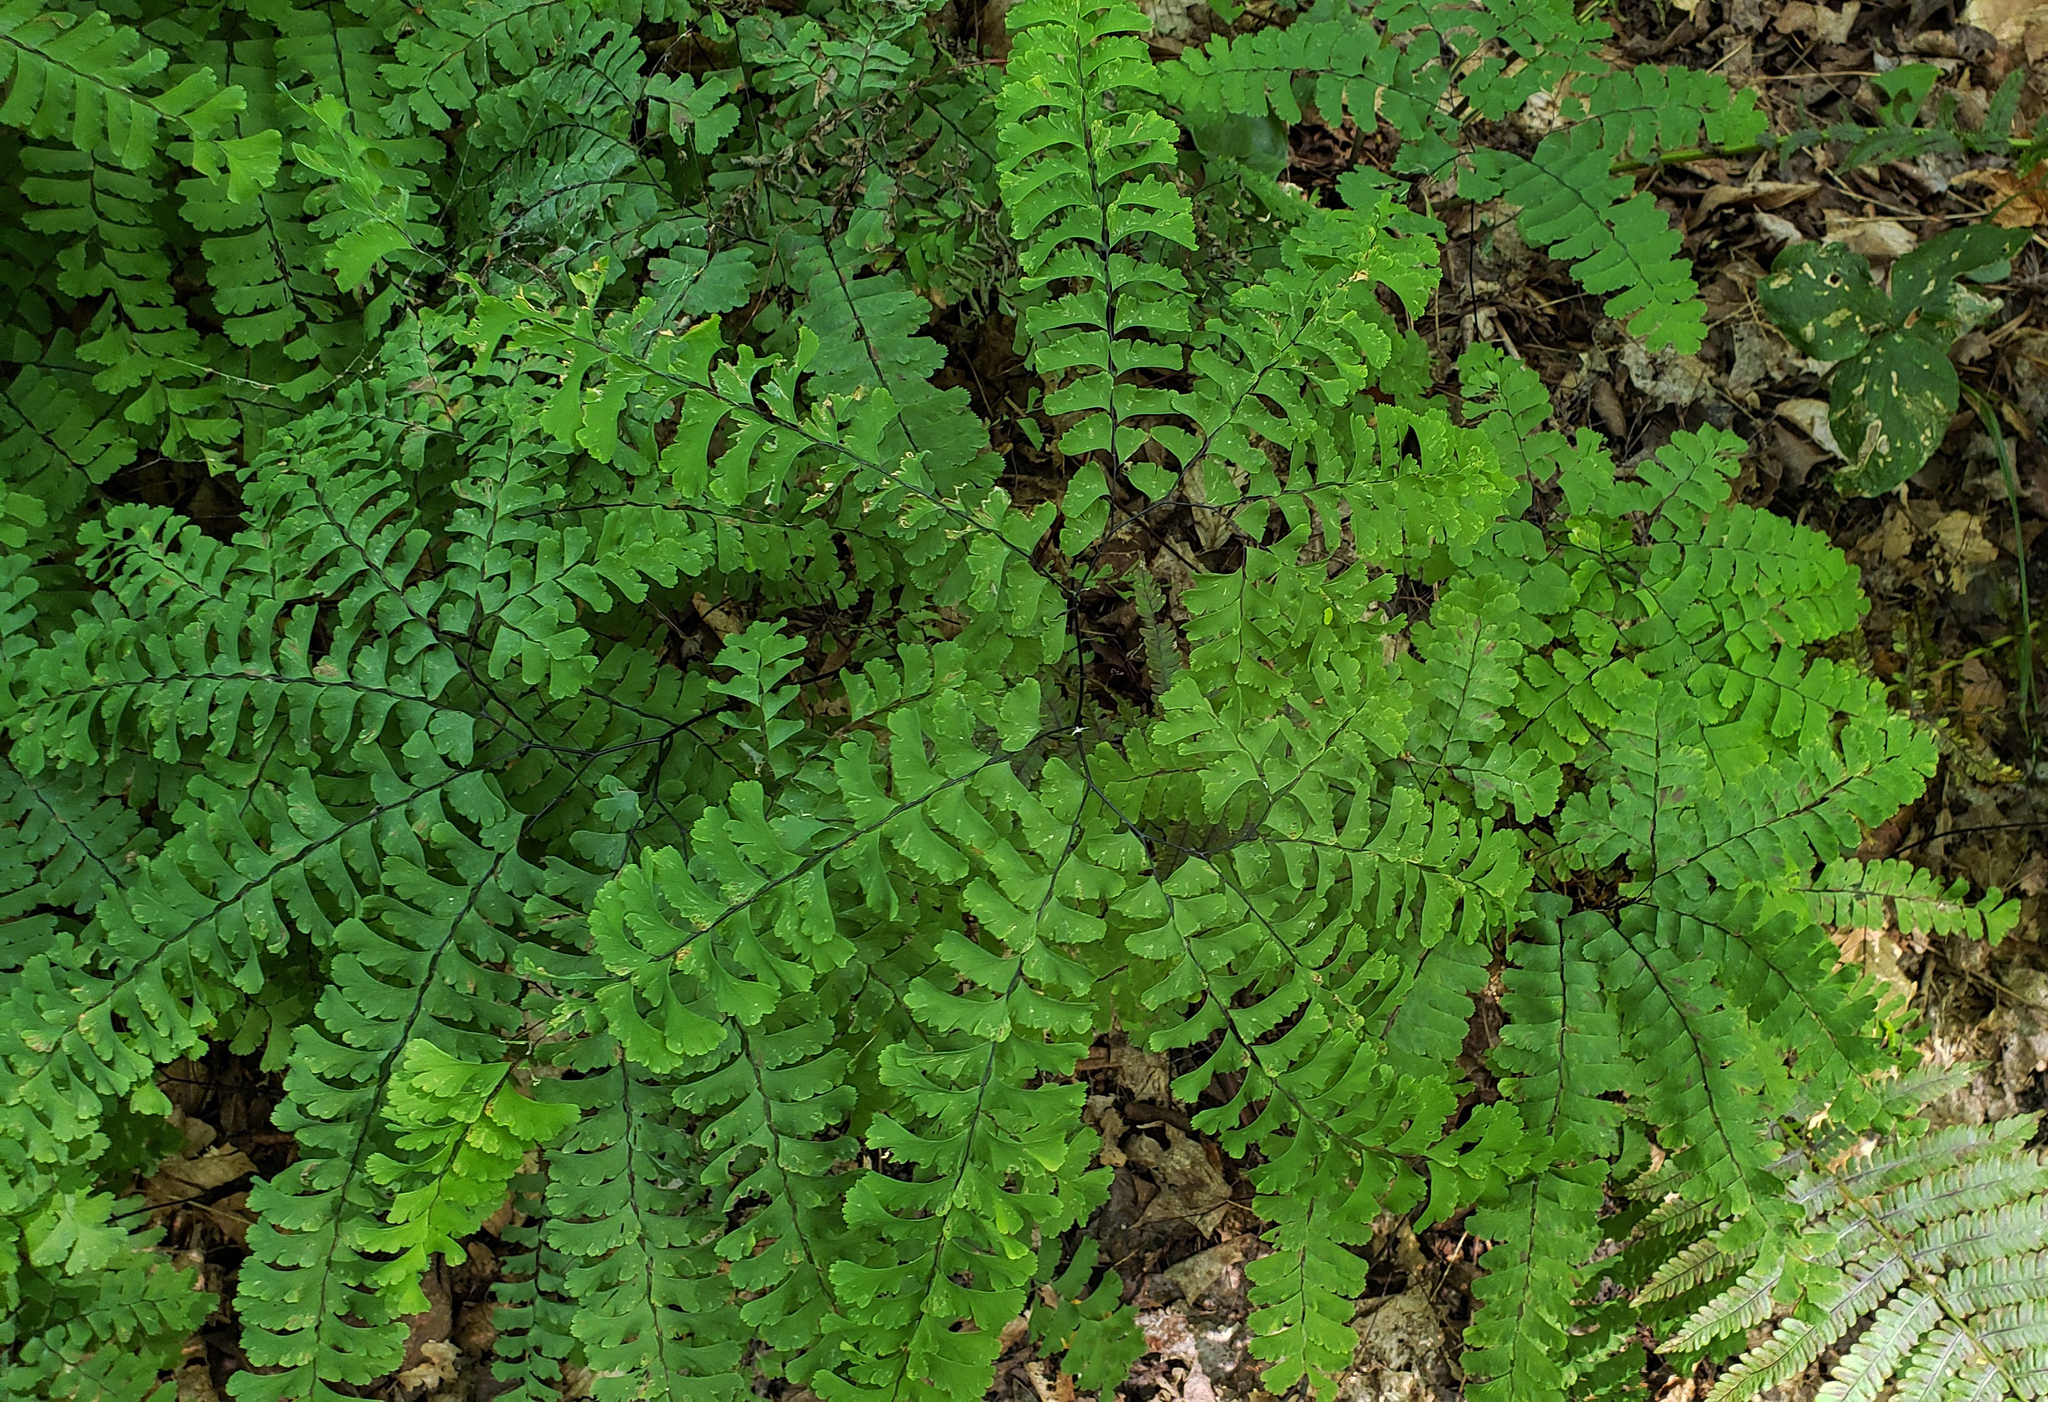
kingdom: Plantae
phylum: Tracheophyta
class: Polypodiopsida
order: Polypodiales
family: Pteridaceae
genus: Adiantum
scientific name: Adiantum pedatum
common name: Five-finger fern
